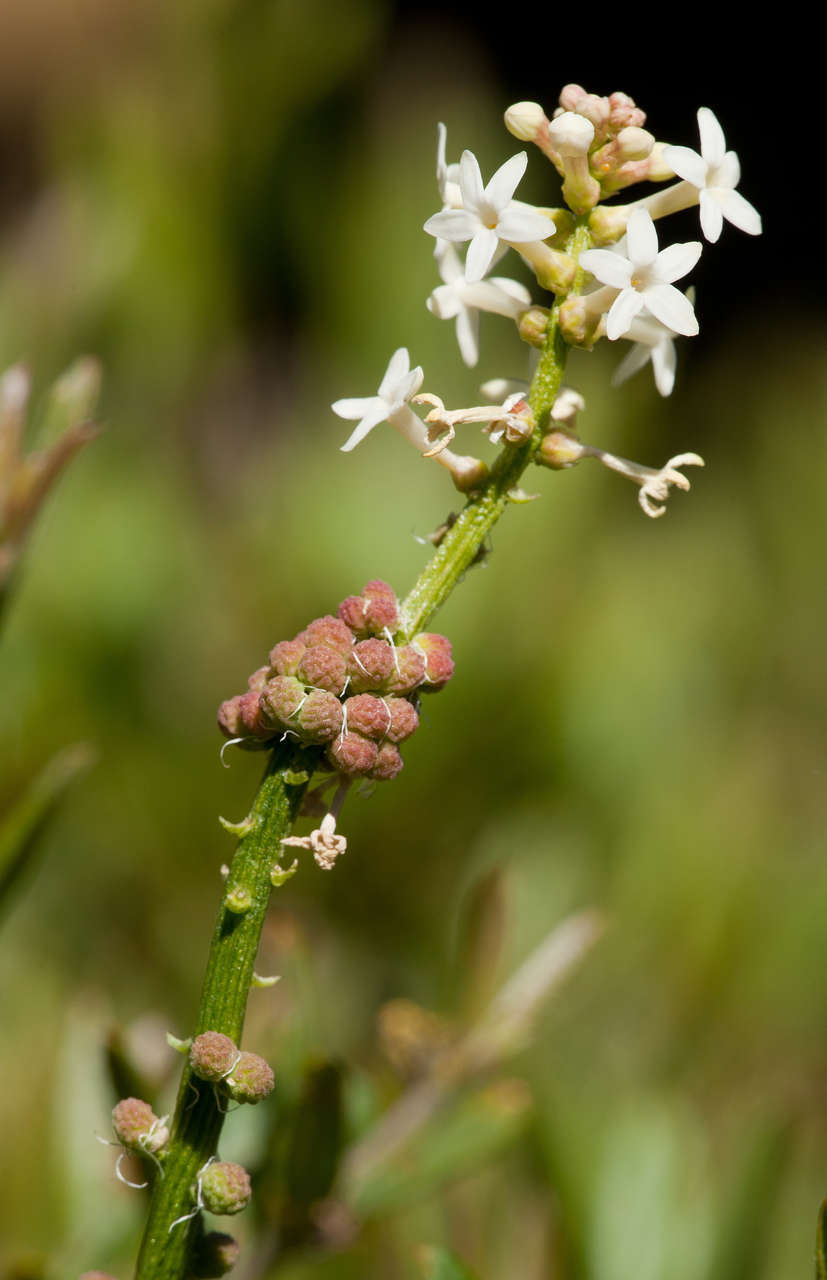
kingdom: Plantae
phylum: Tracheophyta
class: Magnoliopsida
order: Celastrales
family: Celastraceae
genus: Stackhousia
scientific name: Stackhousia monogyna
